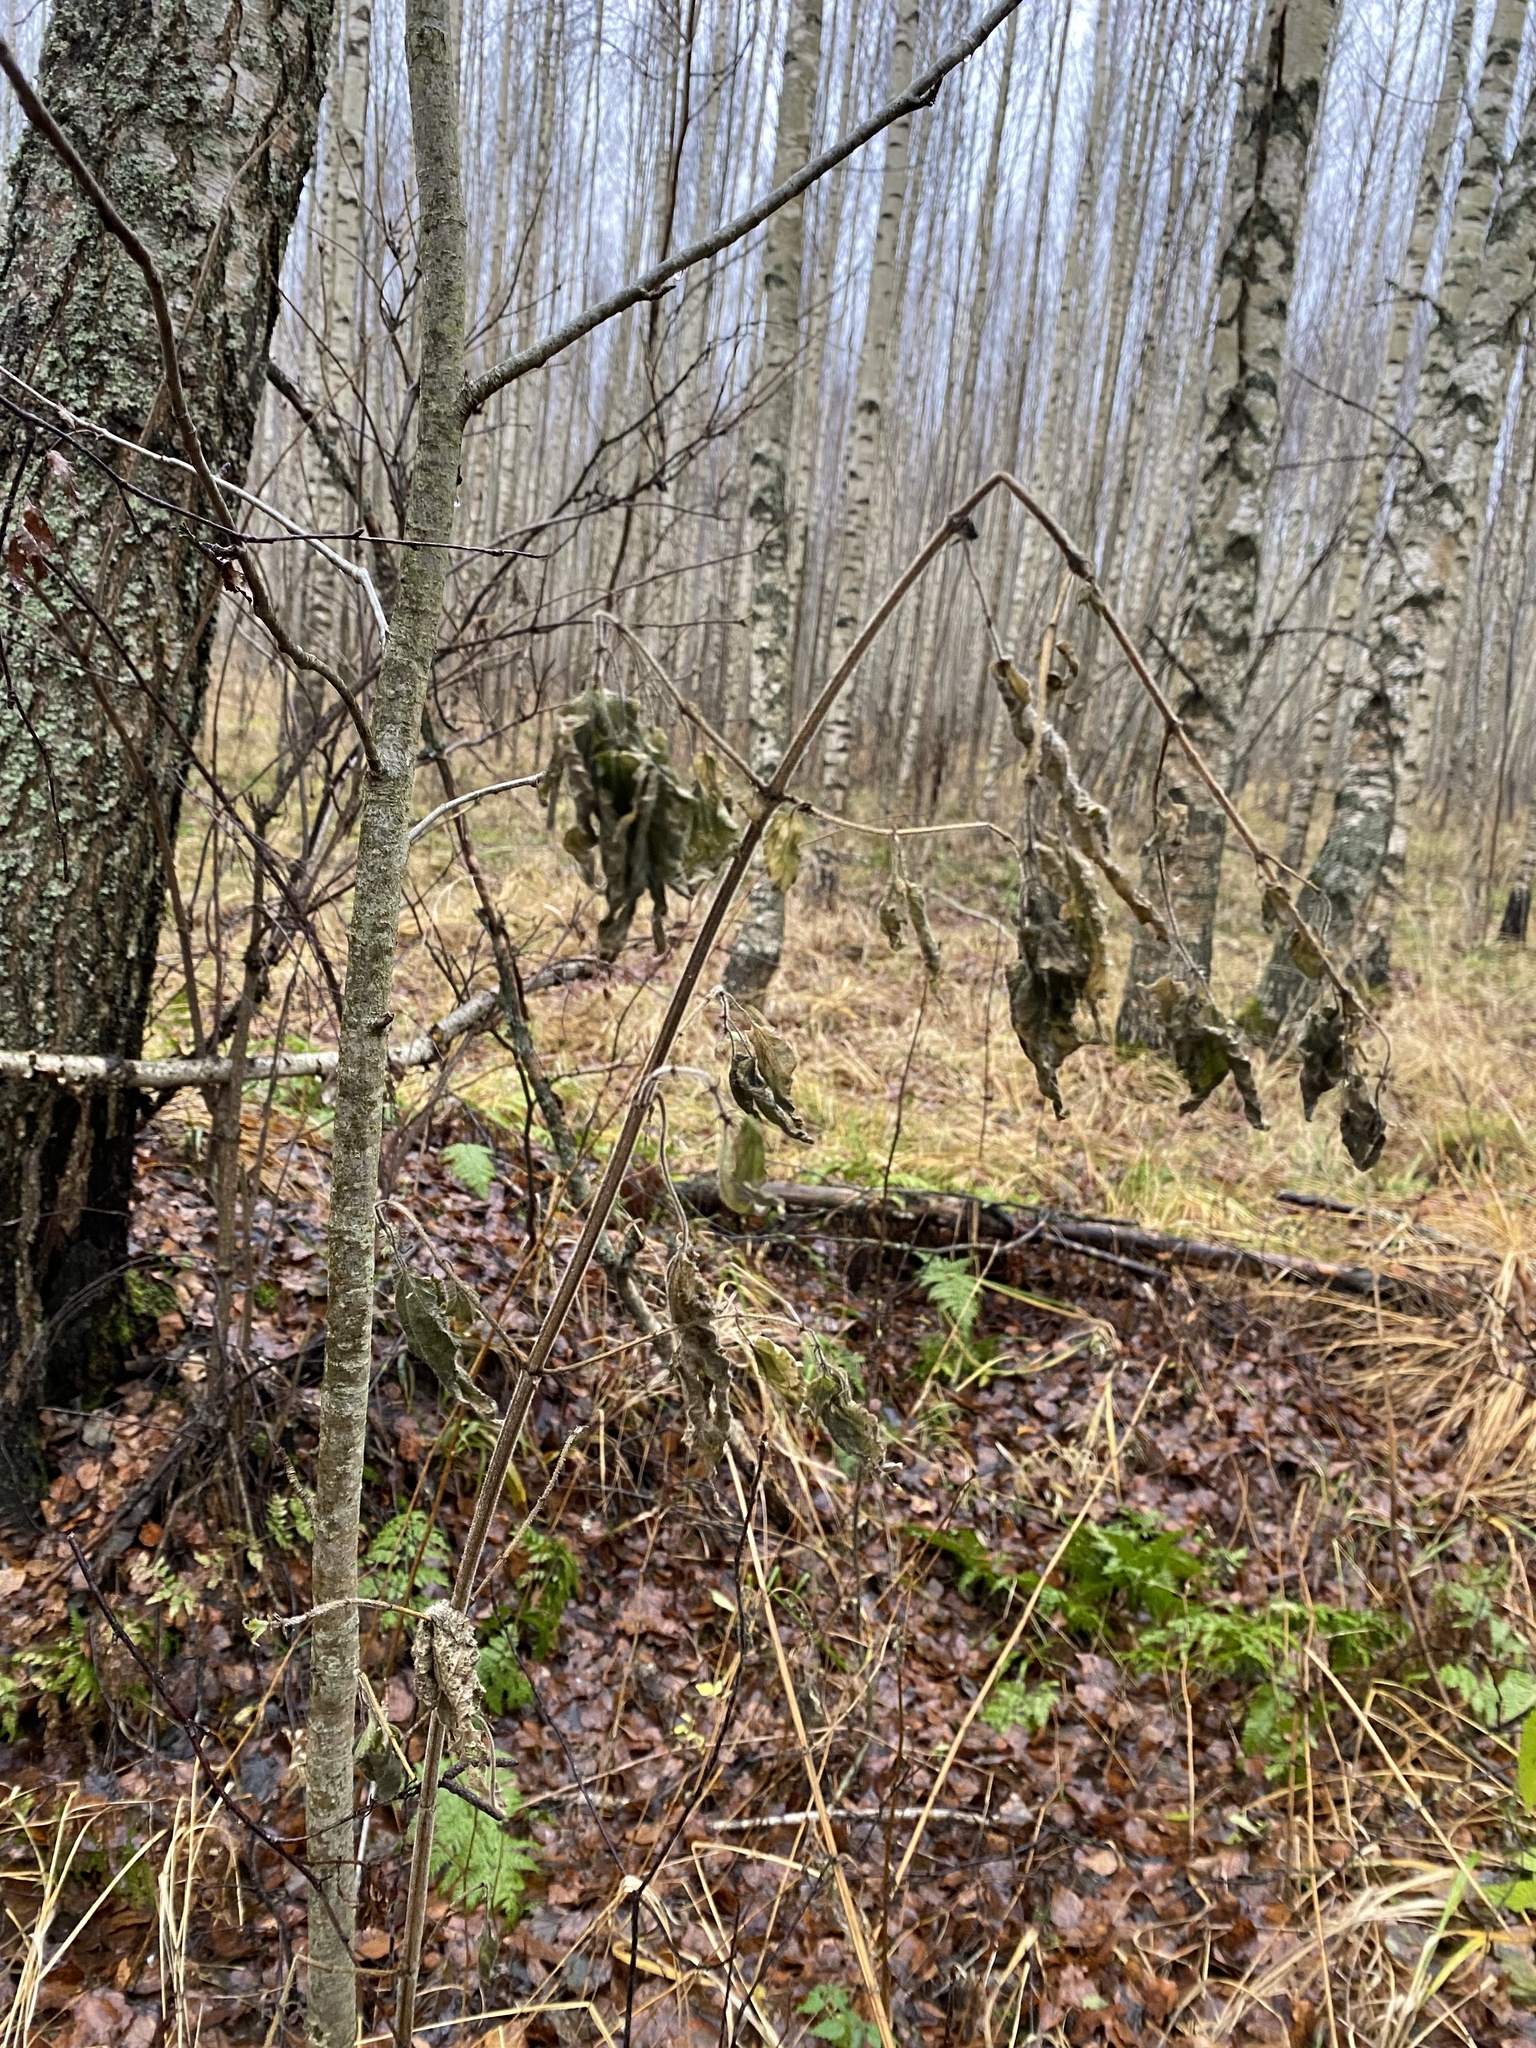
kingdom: Plantae
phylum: Tracheophyta
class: Magnoliopsida
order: Rosales
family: Urticaceae
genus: Urtica
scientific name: Urtica dioica
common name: Common nettle
